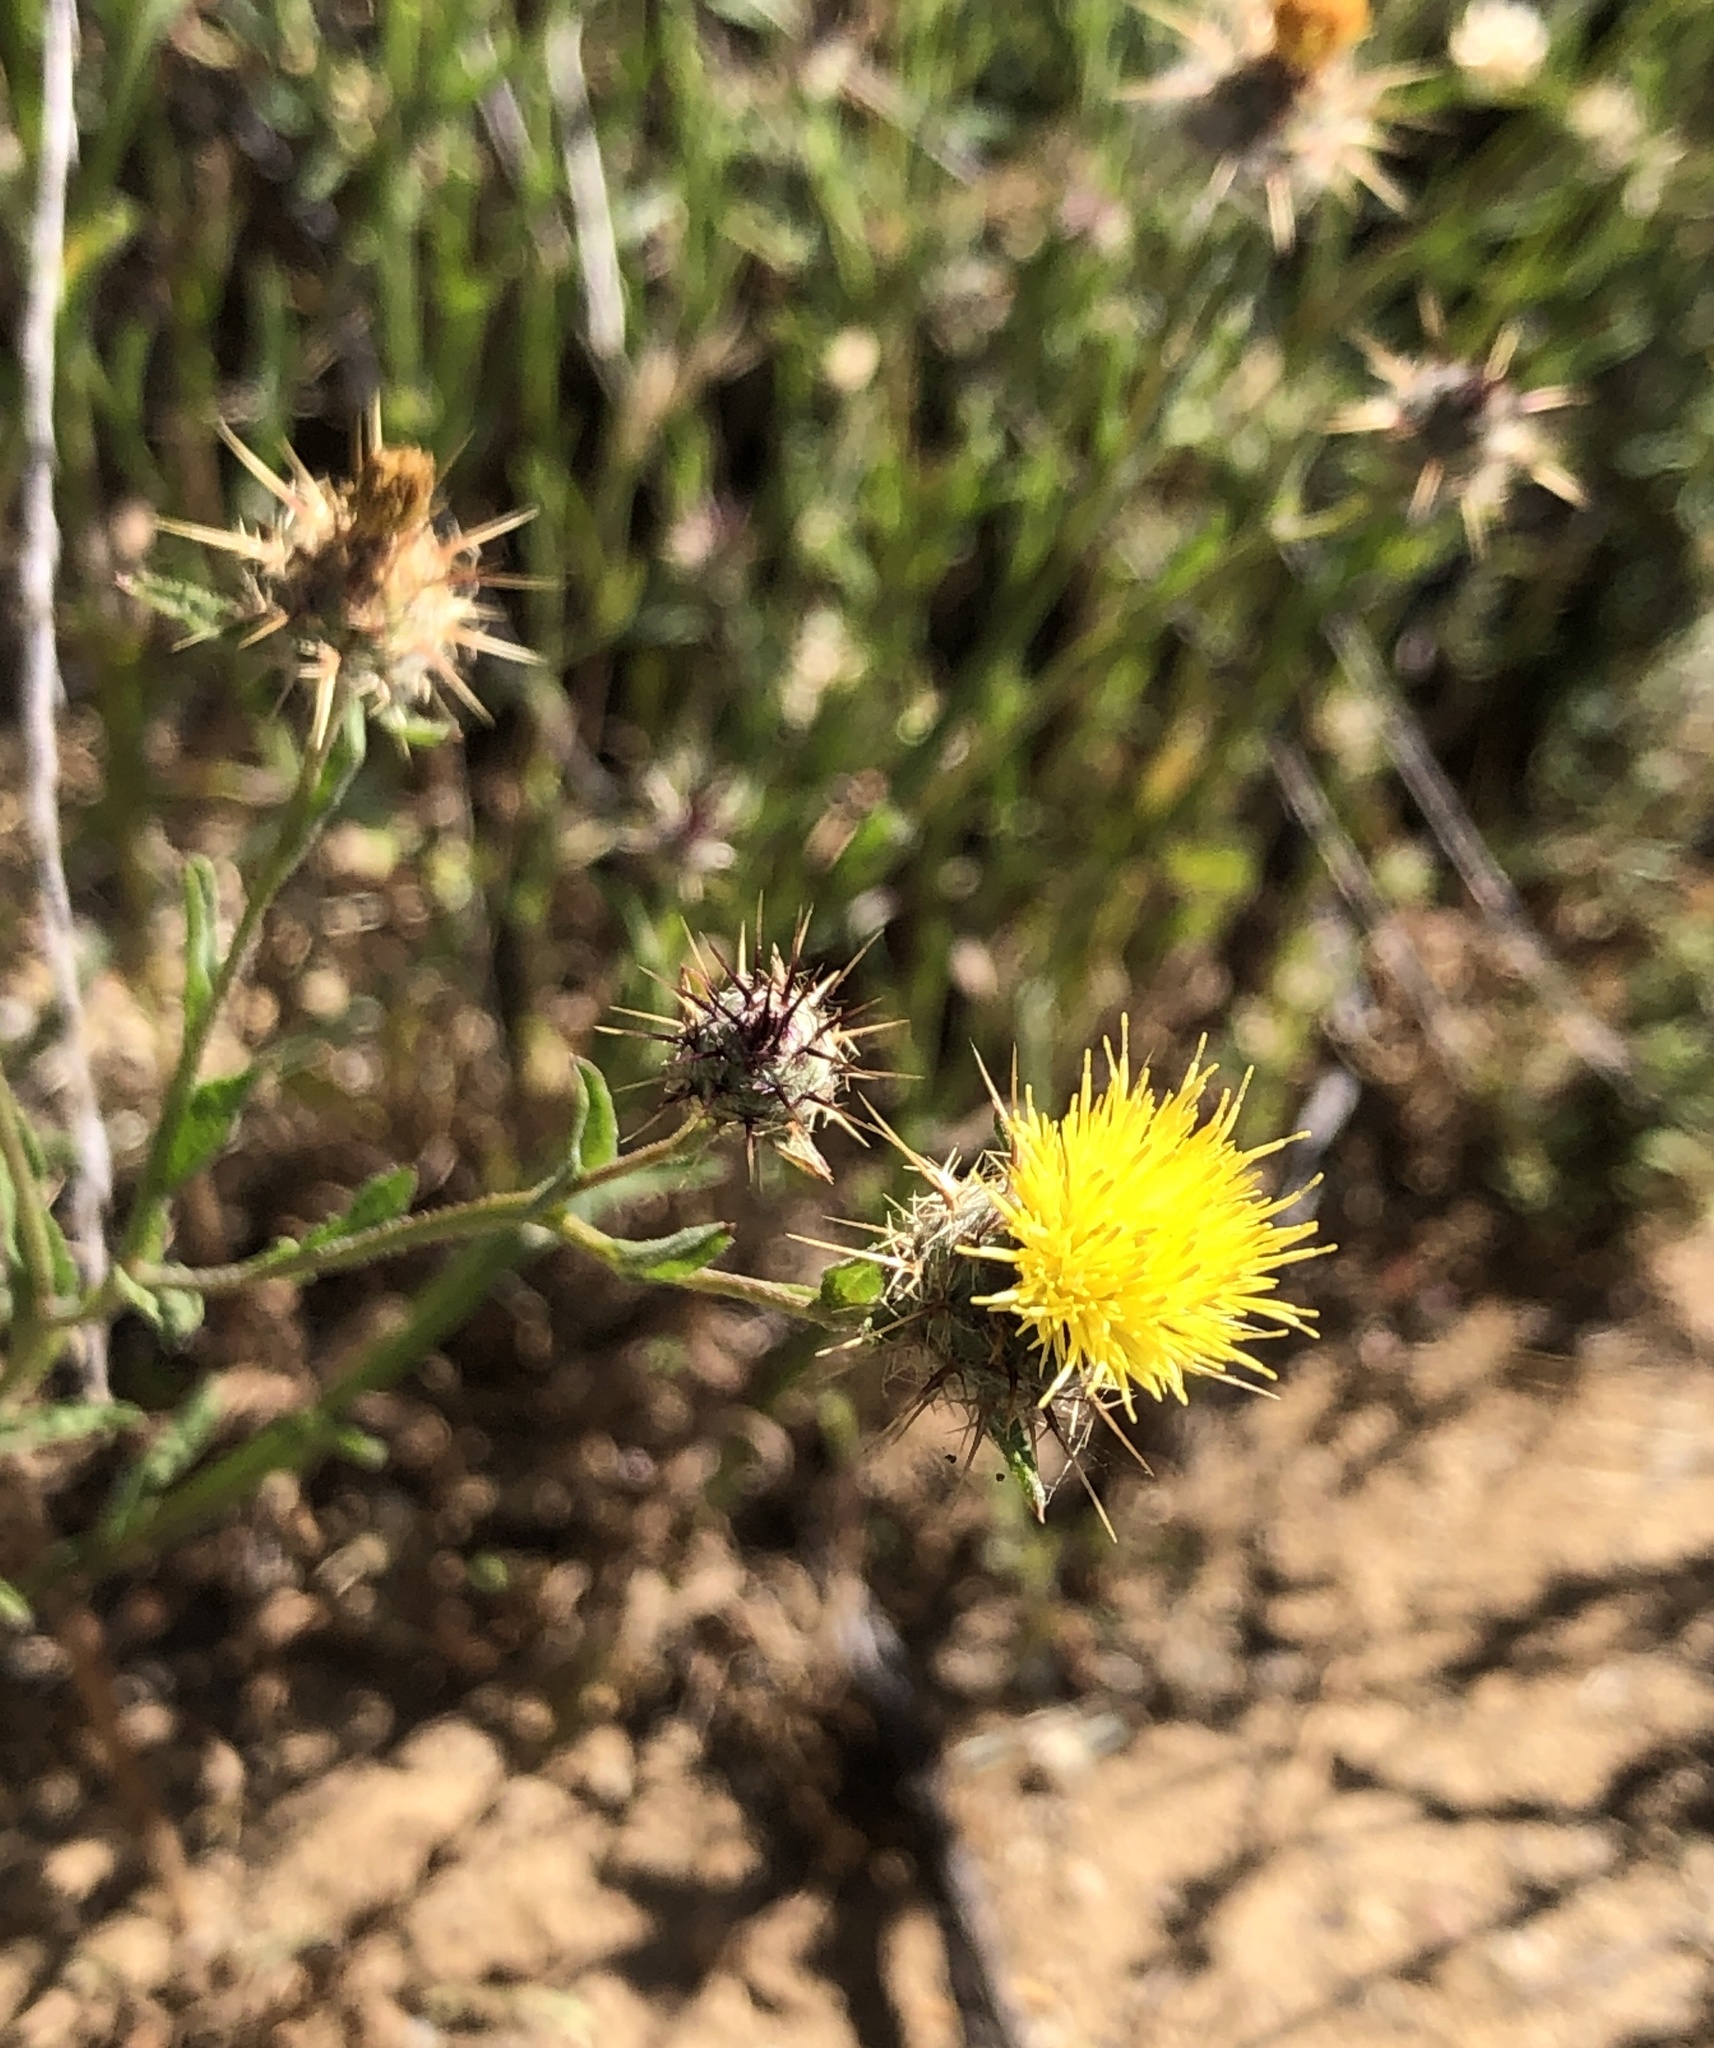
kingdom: Plantae
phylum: Tracheophyta
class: Magnoliopsida
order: Asterales
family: Asteraceae
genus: Centaurea
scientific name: Centaurea melitensis
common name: Maltese star-thistle
